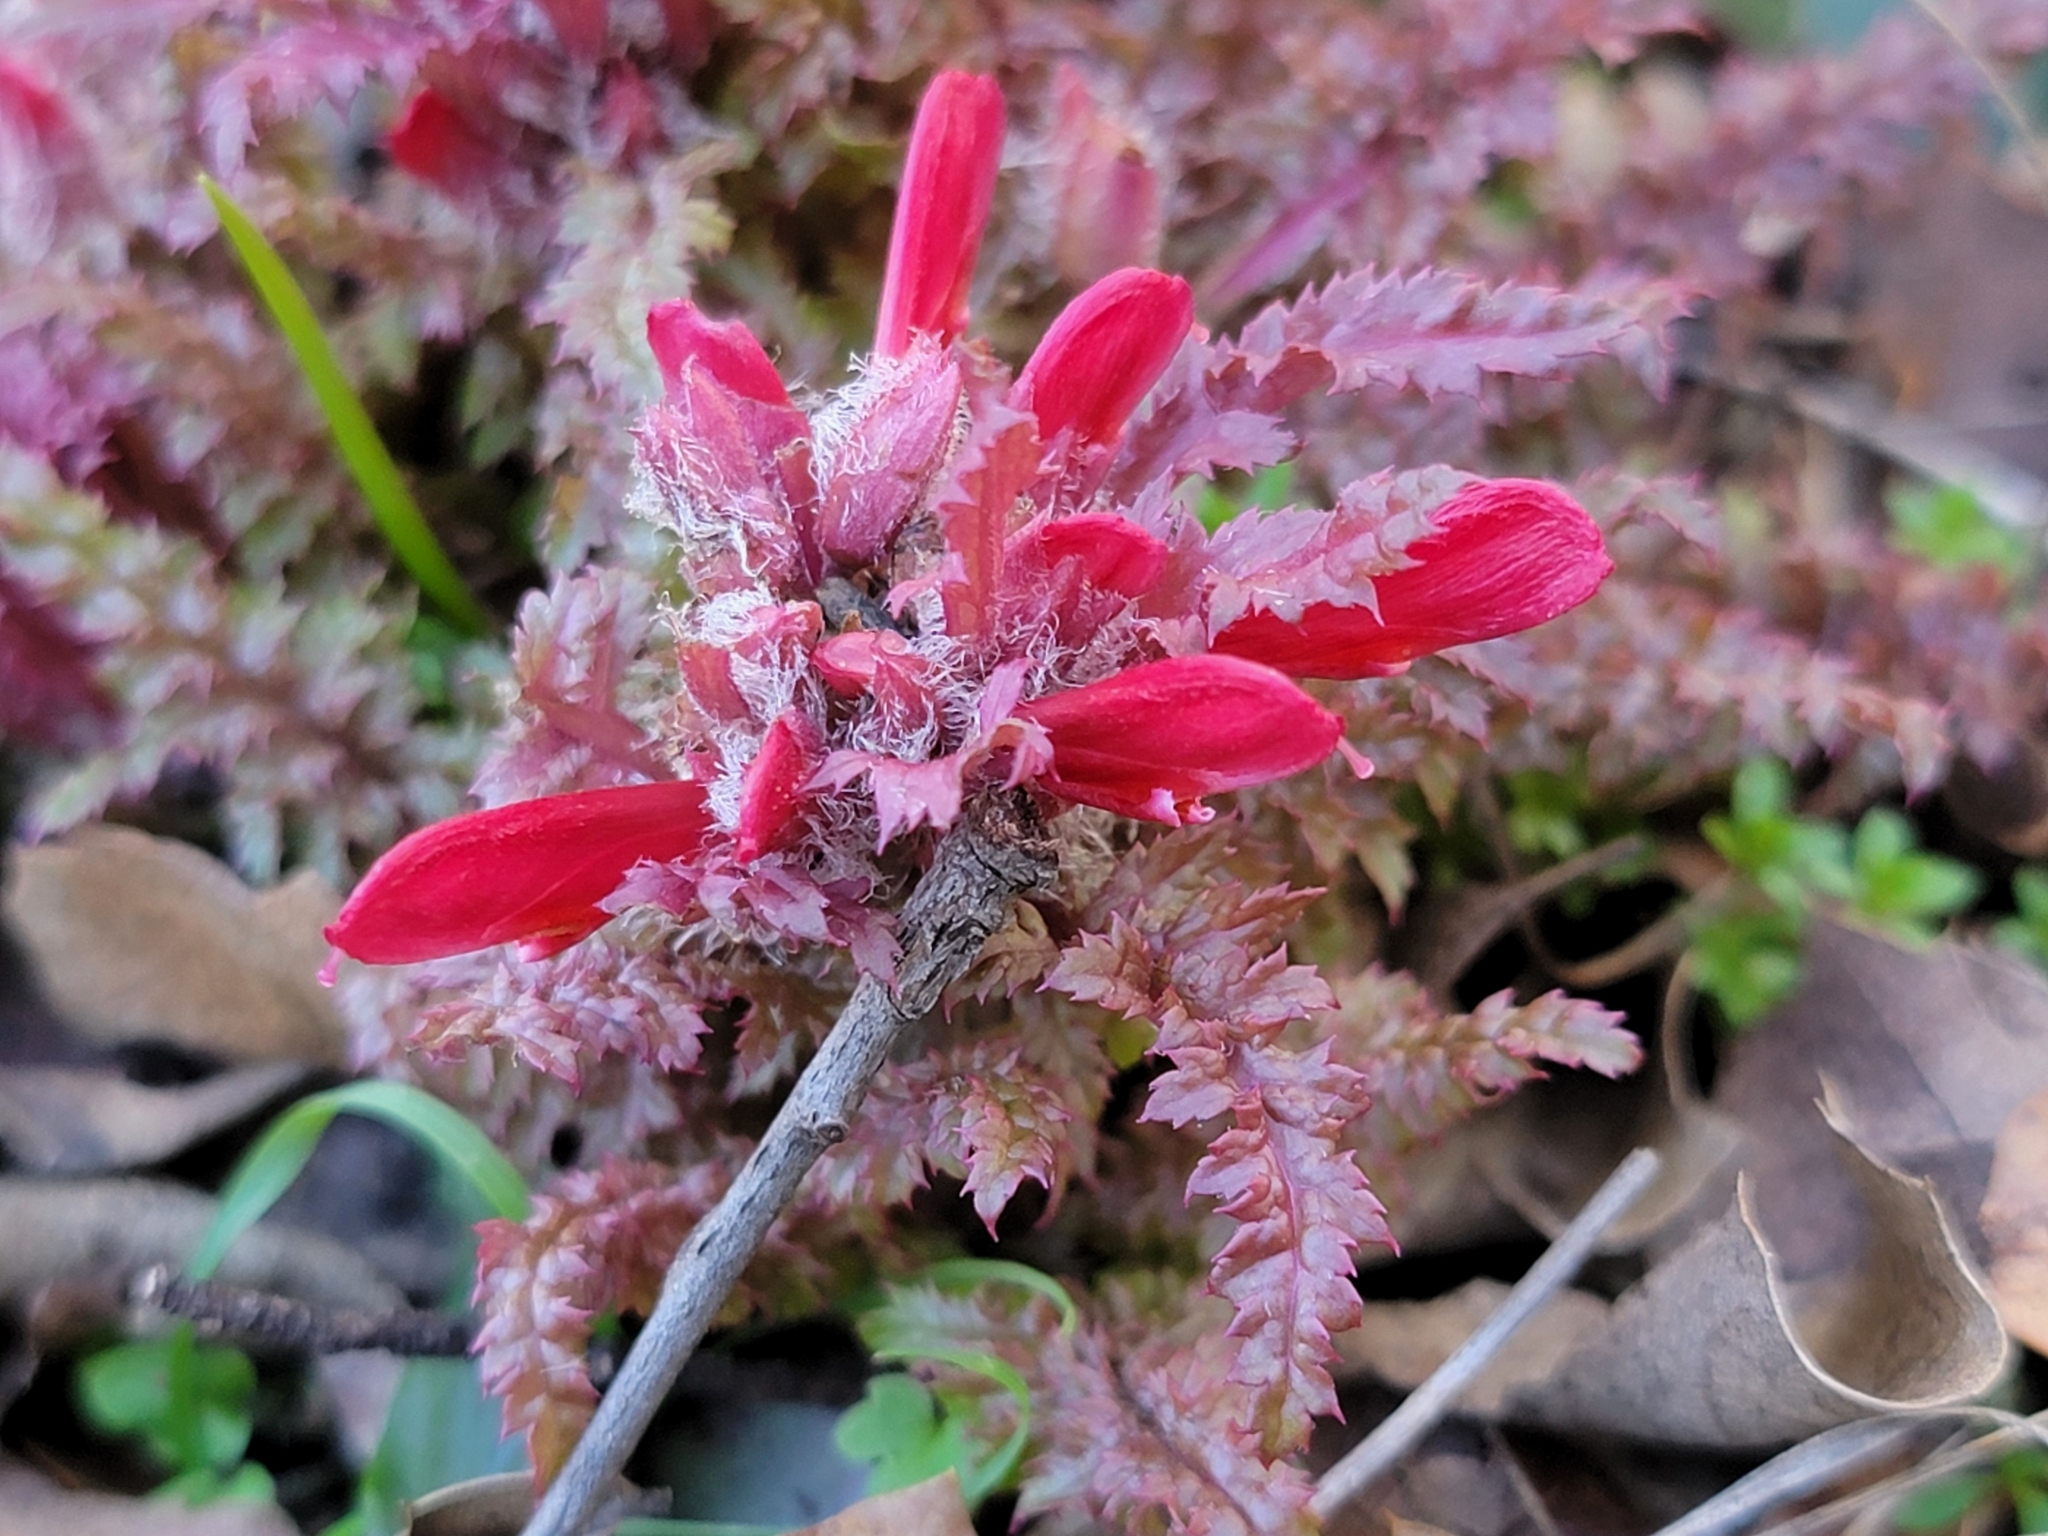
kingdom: Plantae
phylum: Tracheophyta
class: Magnoliopsida
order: Lamiales
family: Orobanchaceae
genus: Pedicularis
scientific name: Pedicularis densiflora
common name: Indian warrior
